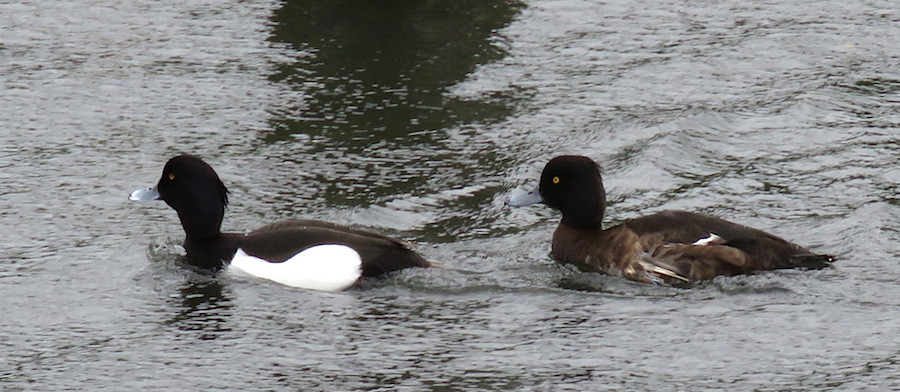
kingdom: Animalia
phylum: Chordata
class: Aves
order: Anseriformes
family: Anatidae
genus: Aythya
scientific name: Aythya fuligula
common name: Tufted duck
